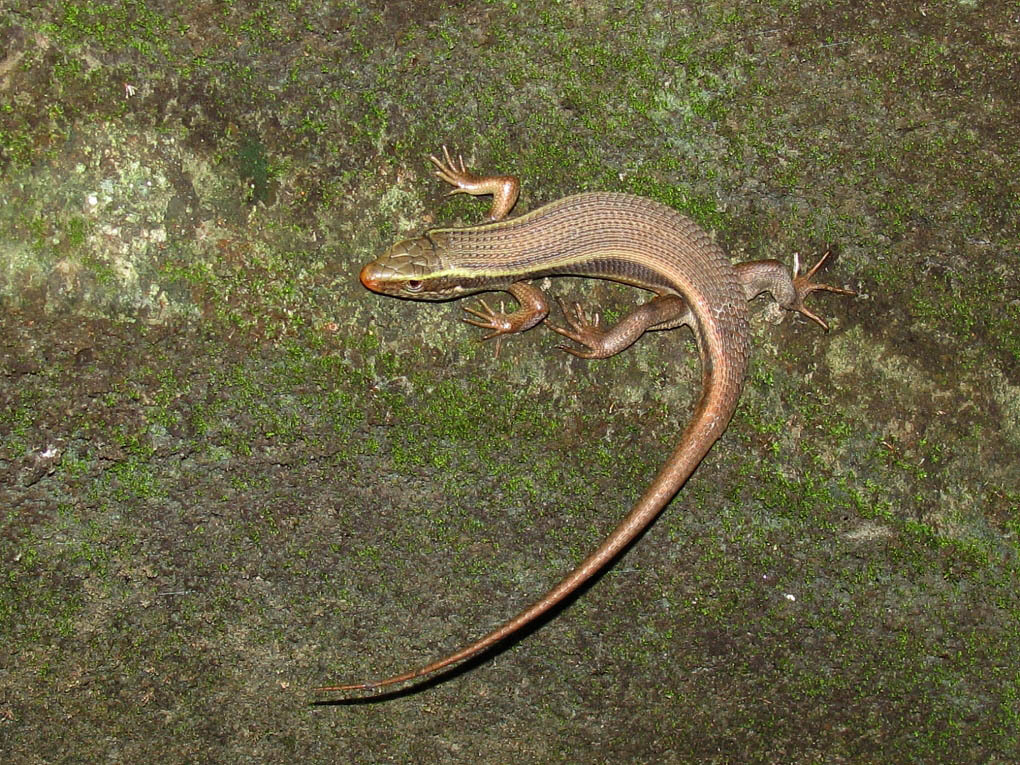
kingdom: Animalia
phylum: Chordata
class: Squamata
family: Scincidae
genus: Eutropis
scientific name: Eutropis carinata
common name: Keeled indian mabuya
